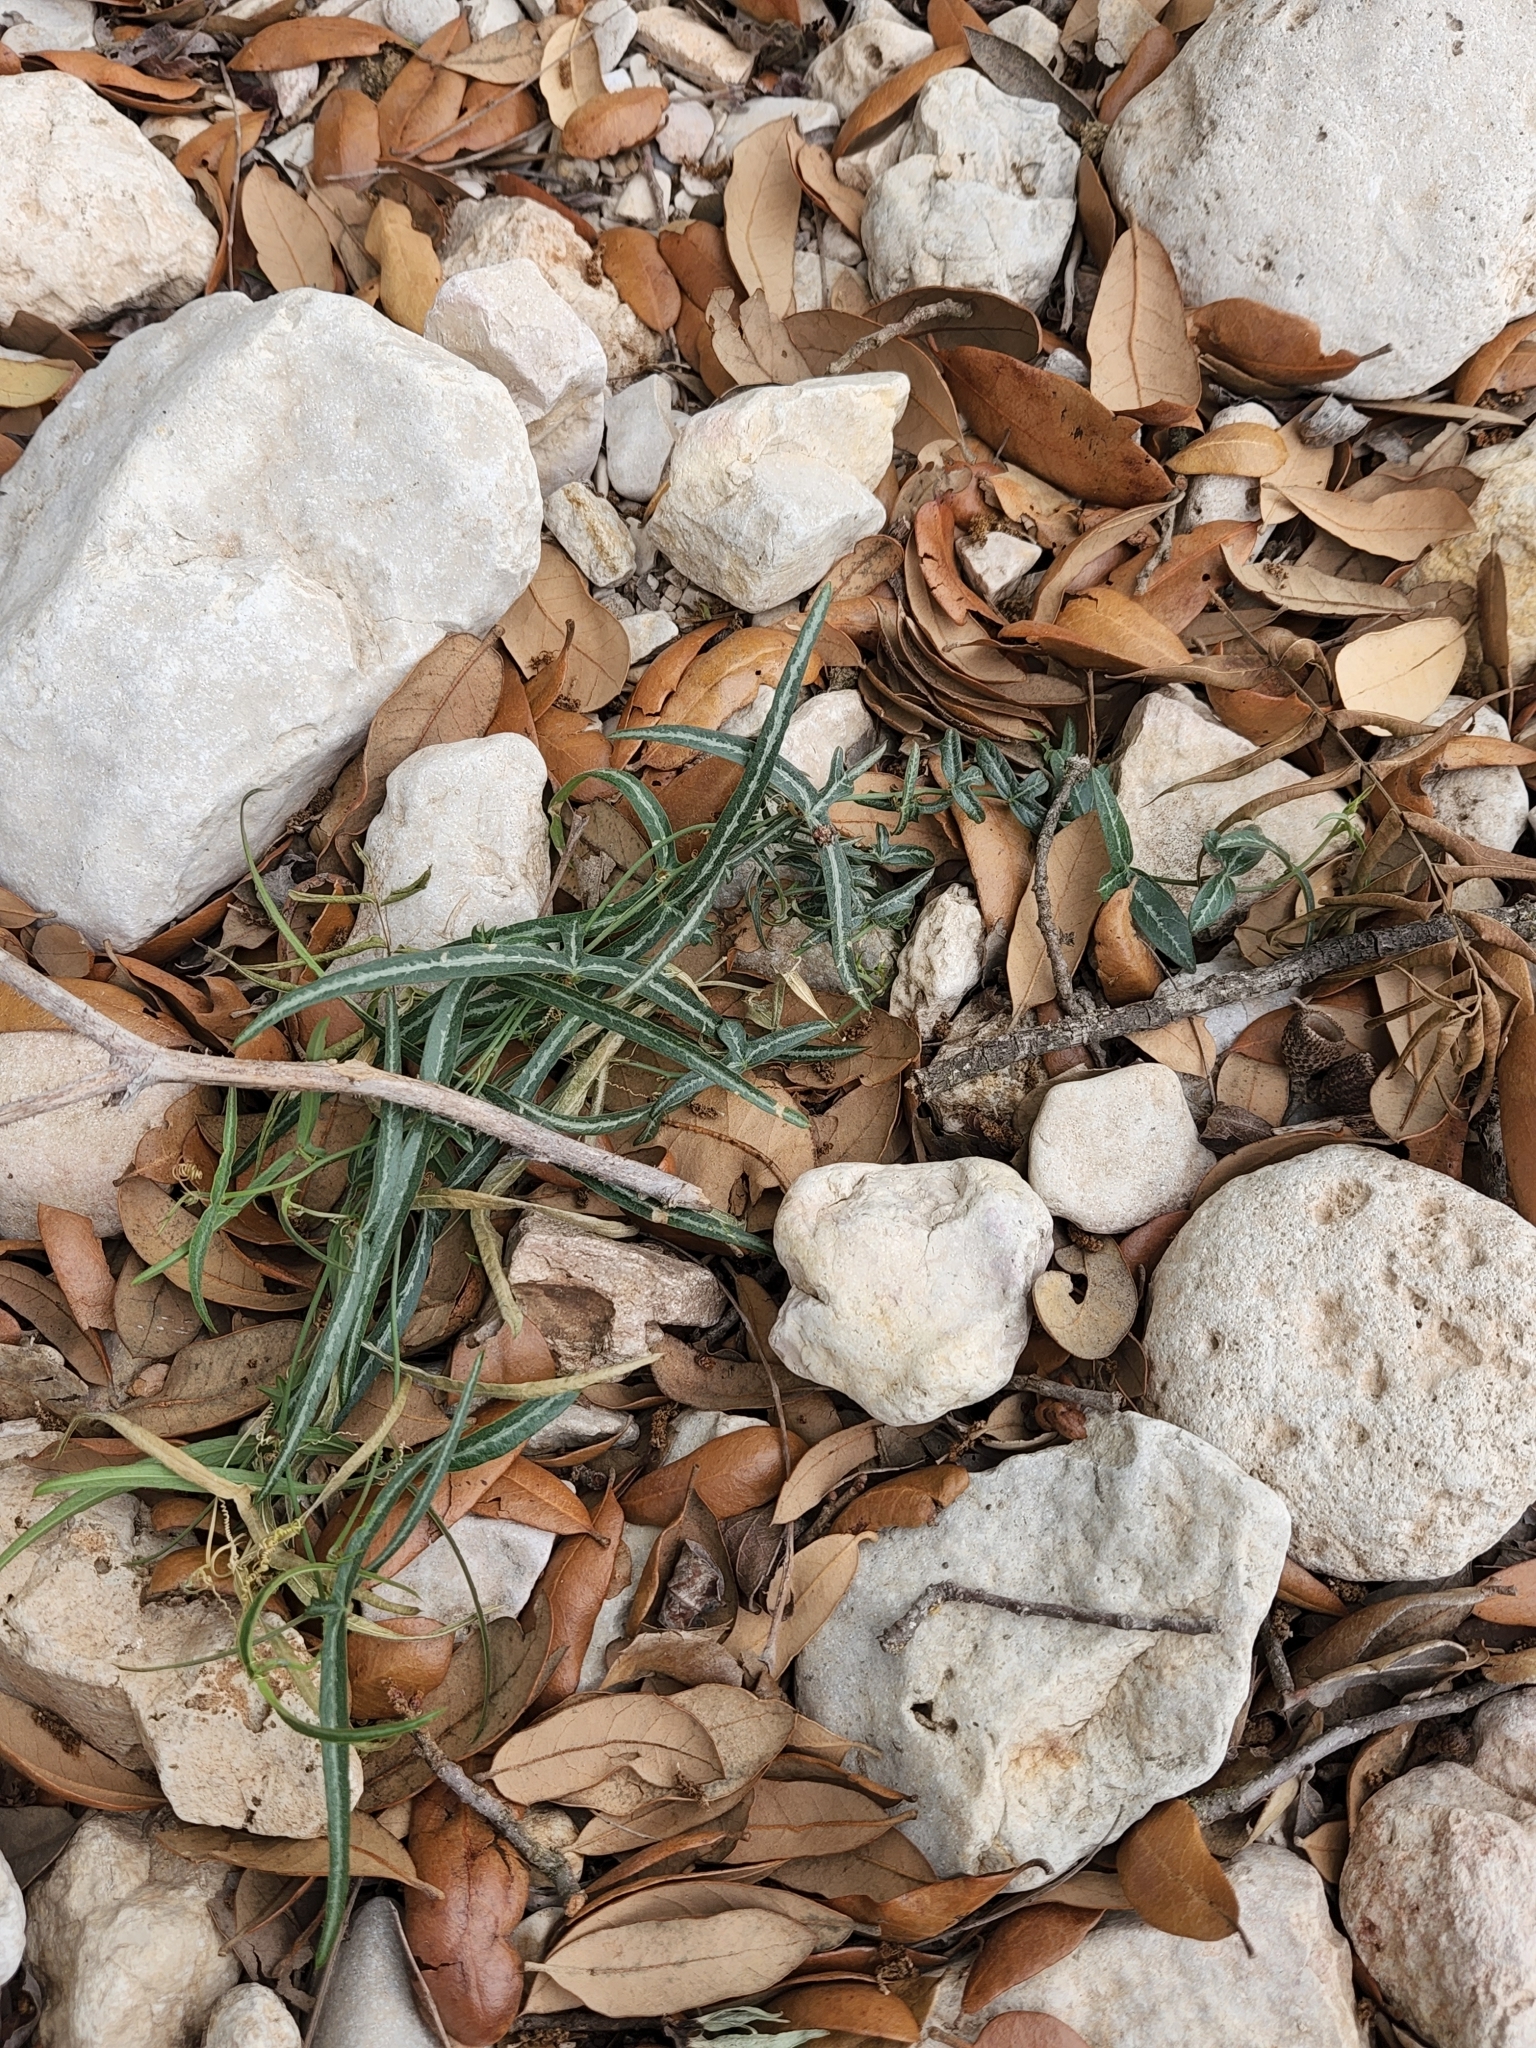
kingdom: Plantae
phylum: Tracheophyta
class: Magnoliopsida
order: Malpighiales
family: Passifloraceae
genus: Passiflora
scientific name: Passiflora tenuiloba
